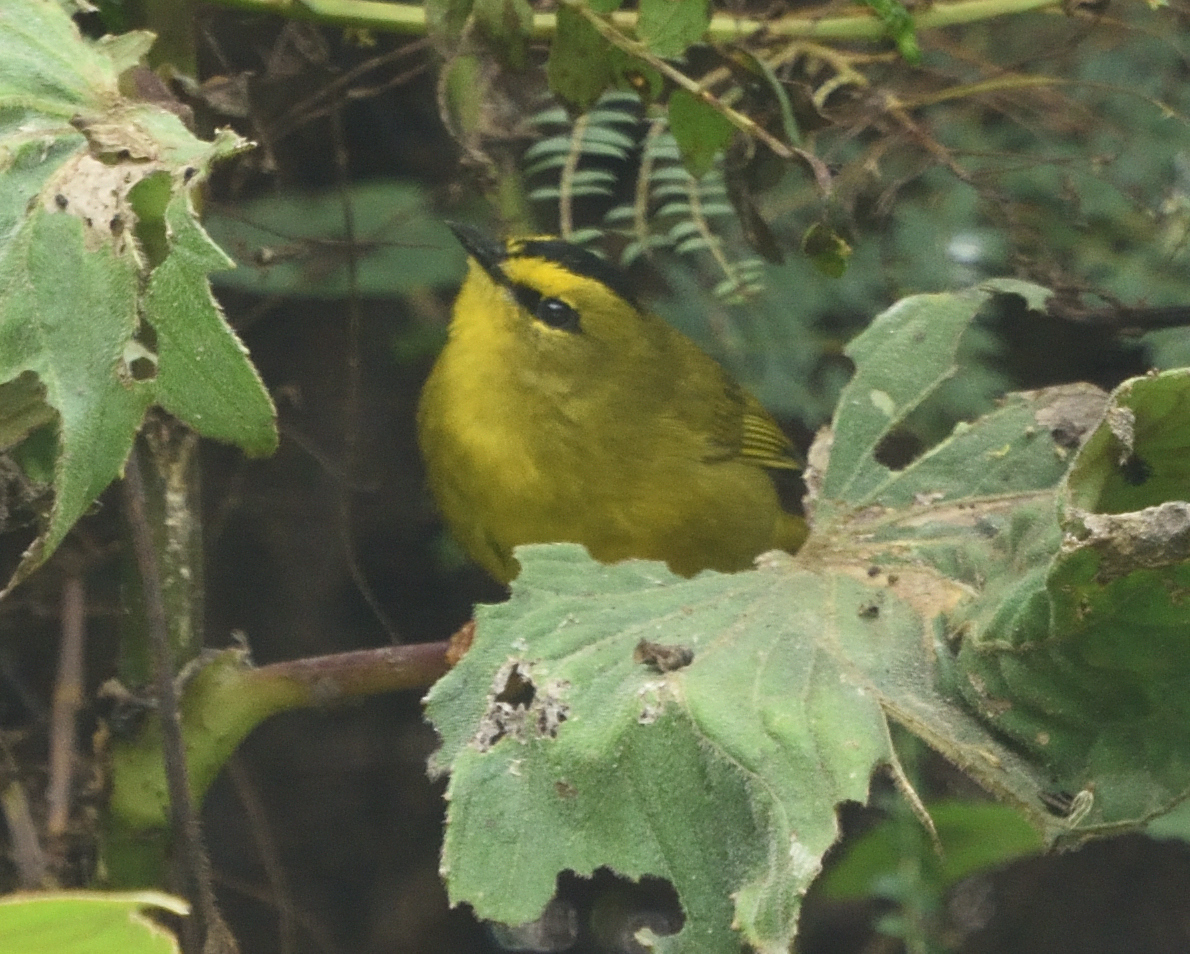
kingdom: Animalia
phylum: Chordata
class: Aves
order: Passeriformes
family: Parulidae
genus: Myiothlypis
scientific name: Myiothlypis nigrocristata
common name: Black-crested warbler
